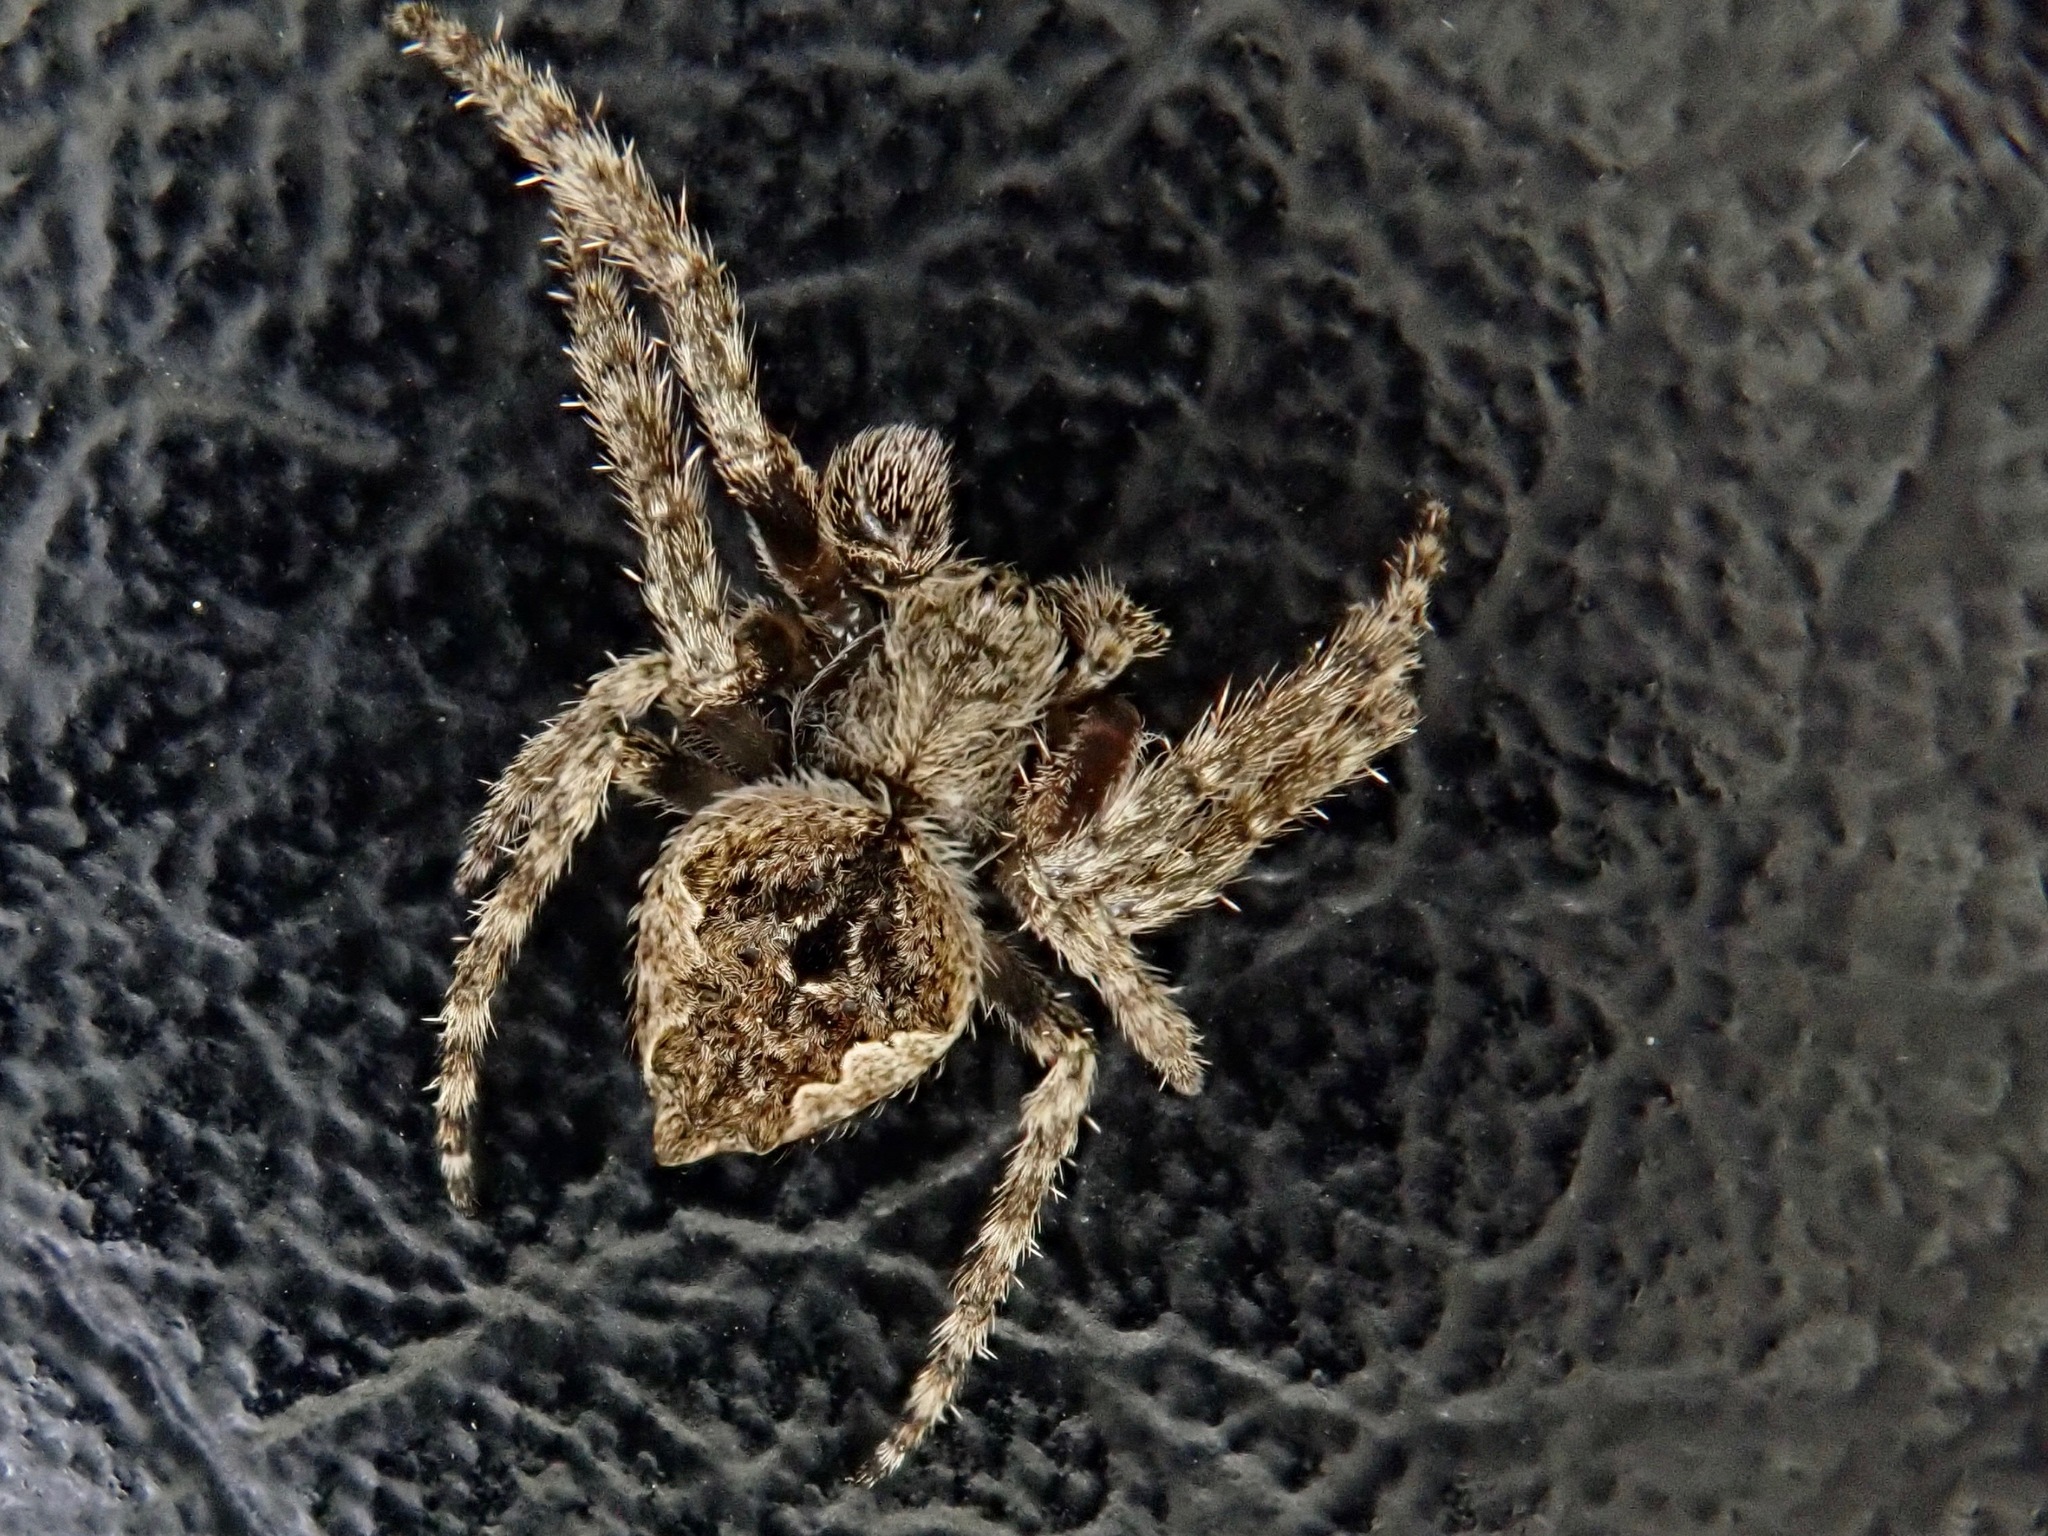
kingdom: Animalia
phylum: Arthropoda
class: Arachnida
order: Araneae
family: Araneidae
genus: Eriophora
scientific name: Eriophora pustulosa
